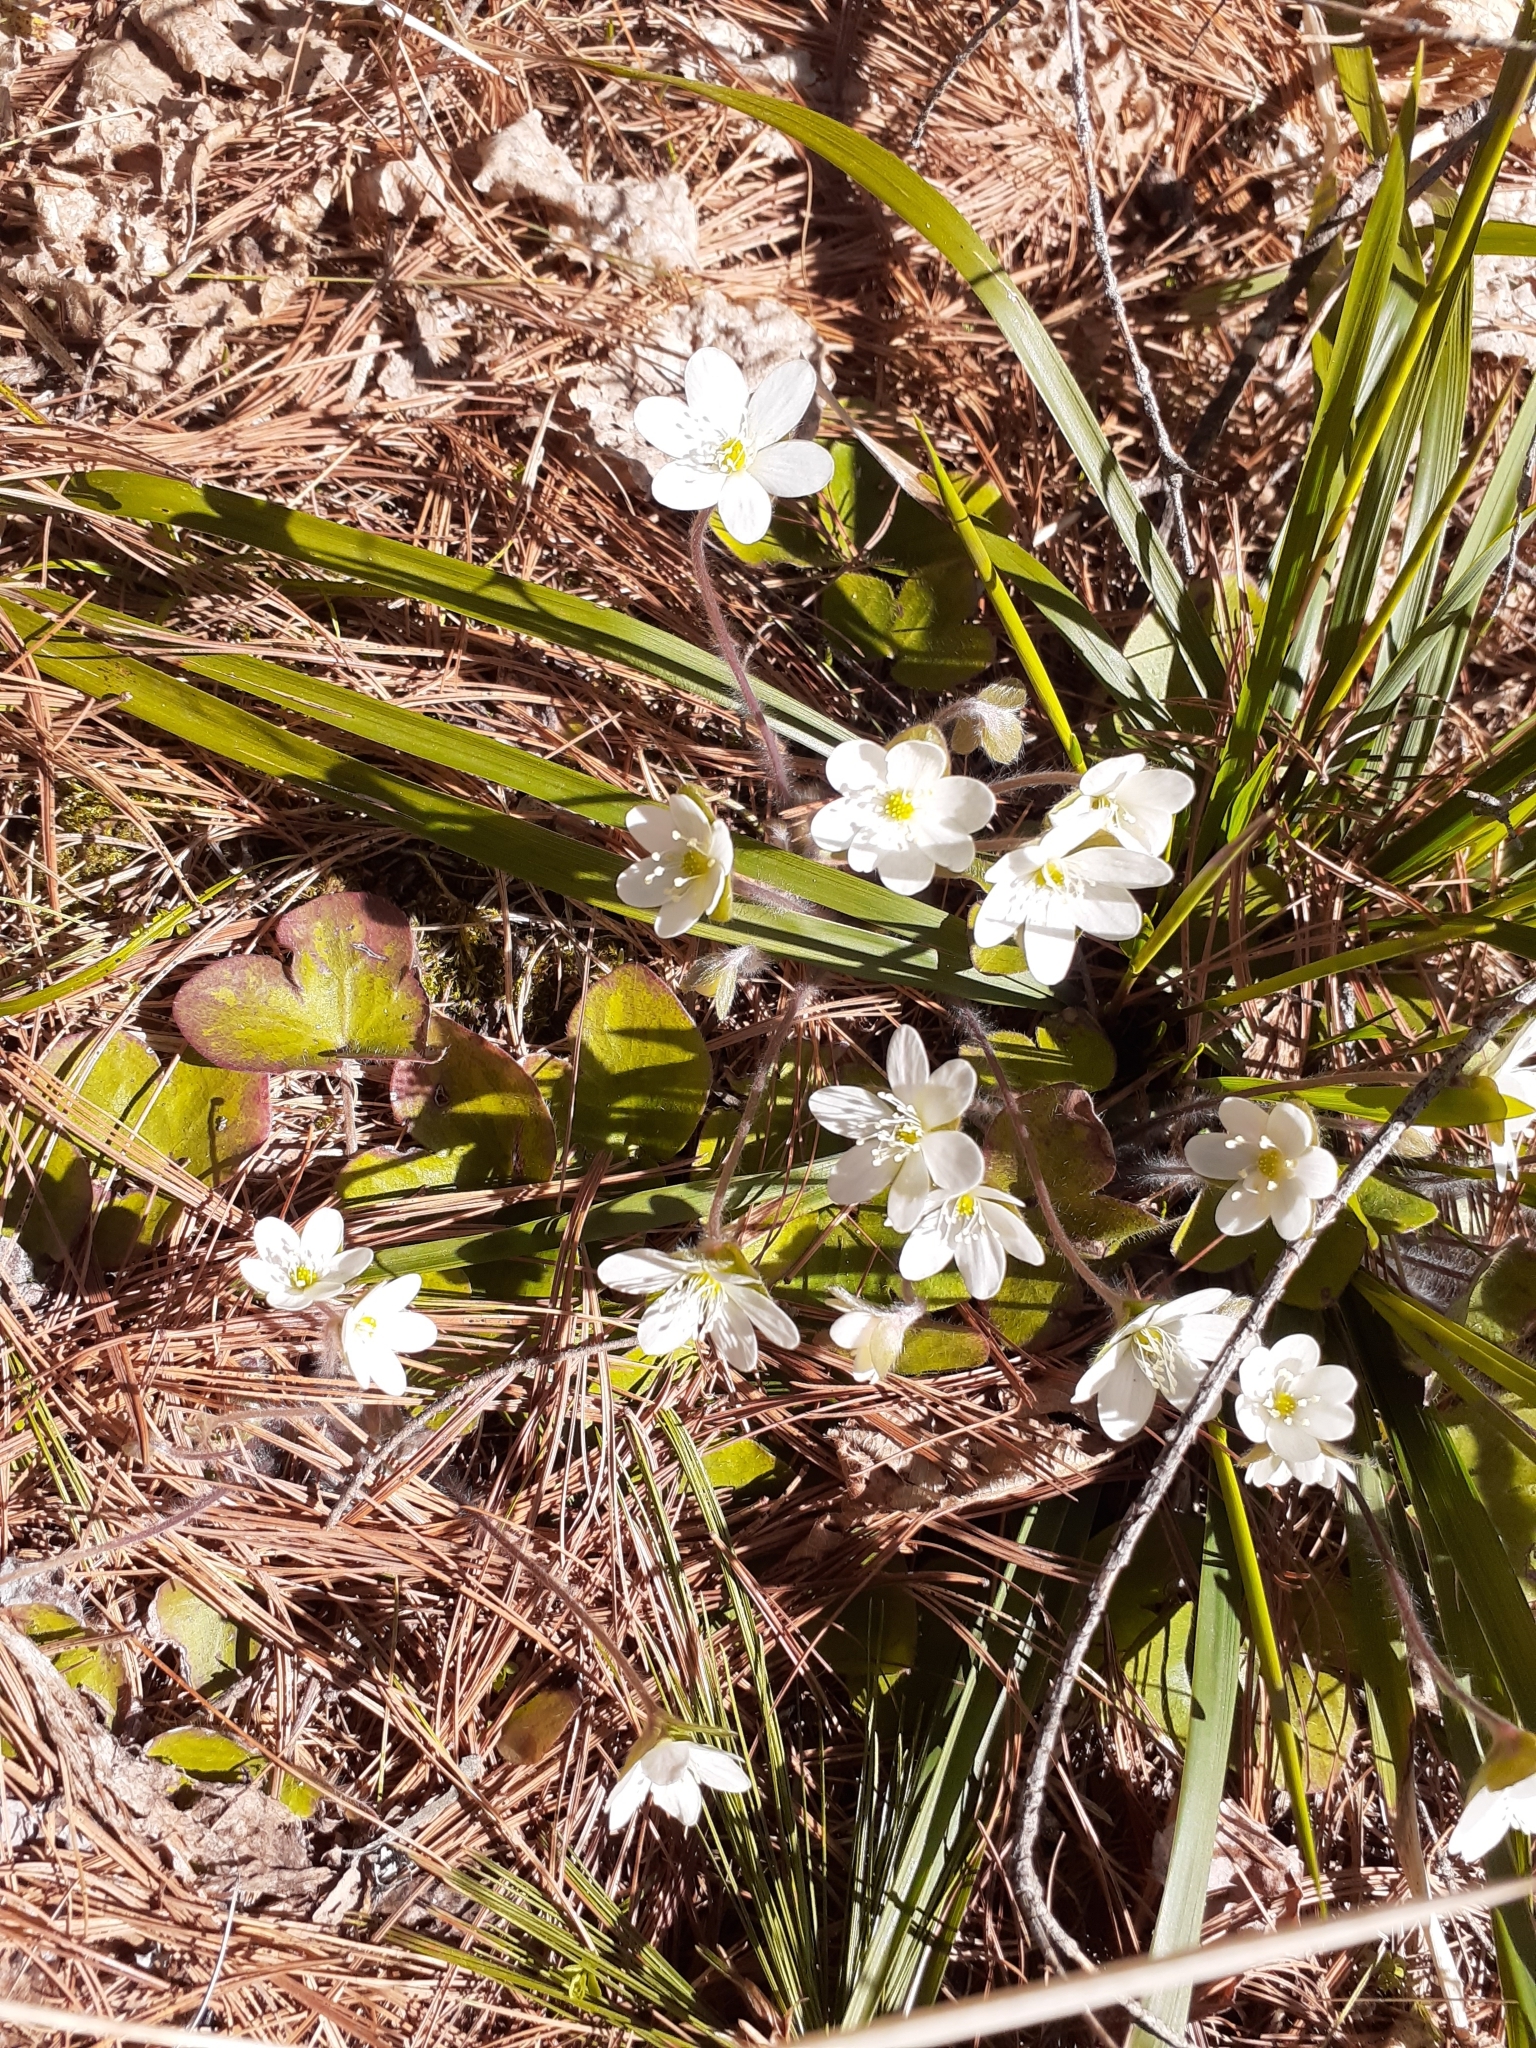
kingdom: Plantae
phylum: Tracheophyta
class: Magnoliopsida
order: Ranunculales
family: Ranunculaceae
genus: Hepatica
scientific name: Hepatica americana
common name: American hepatica
